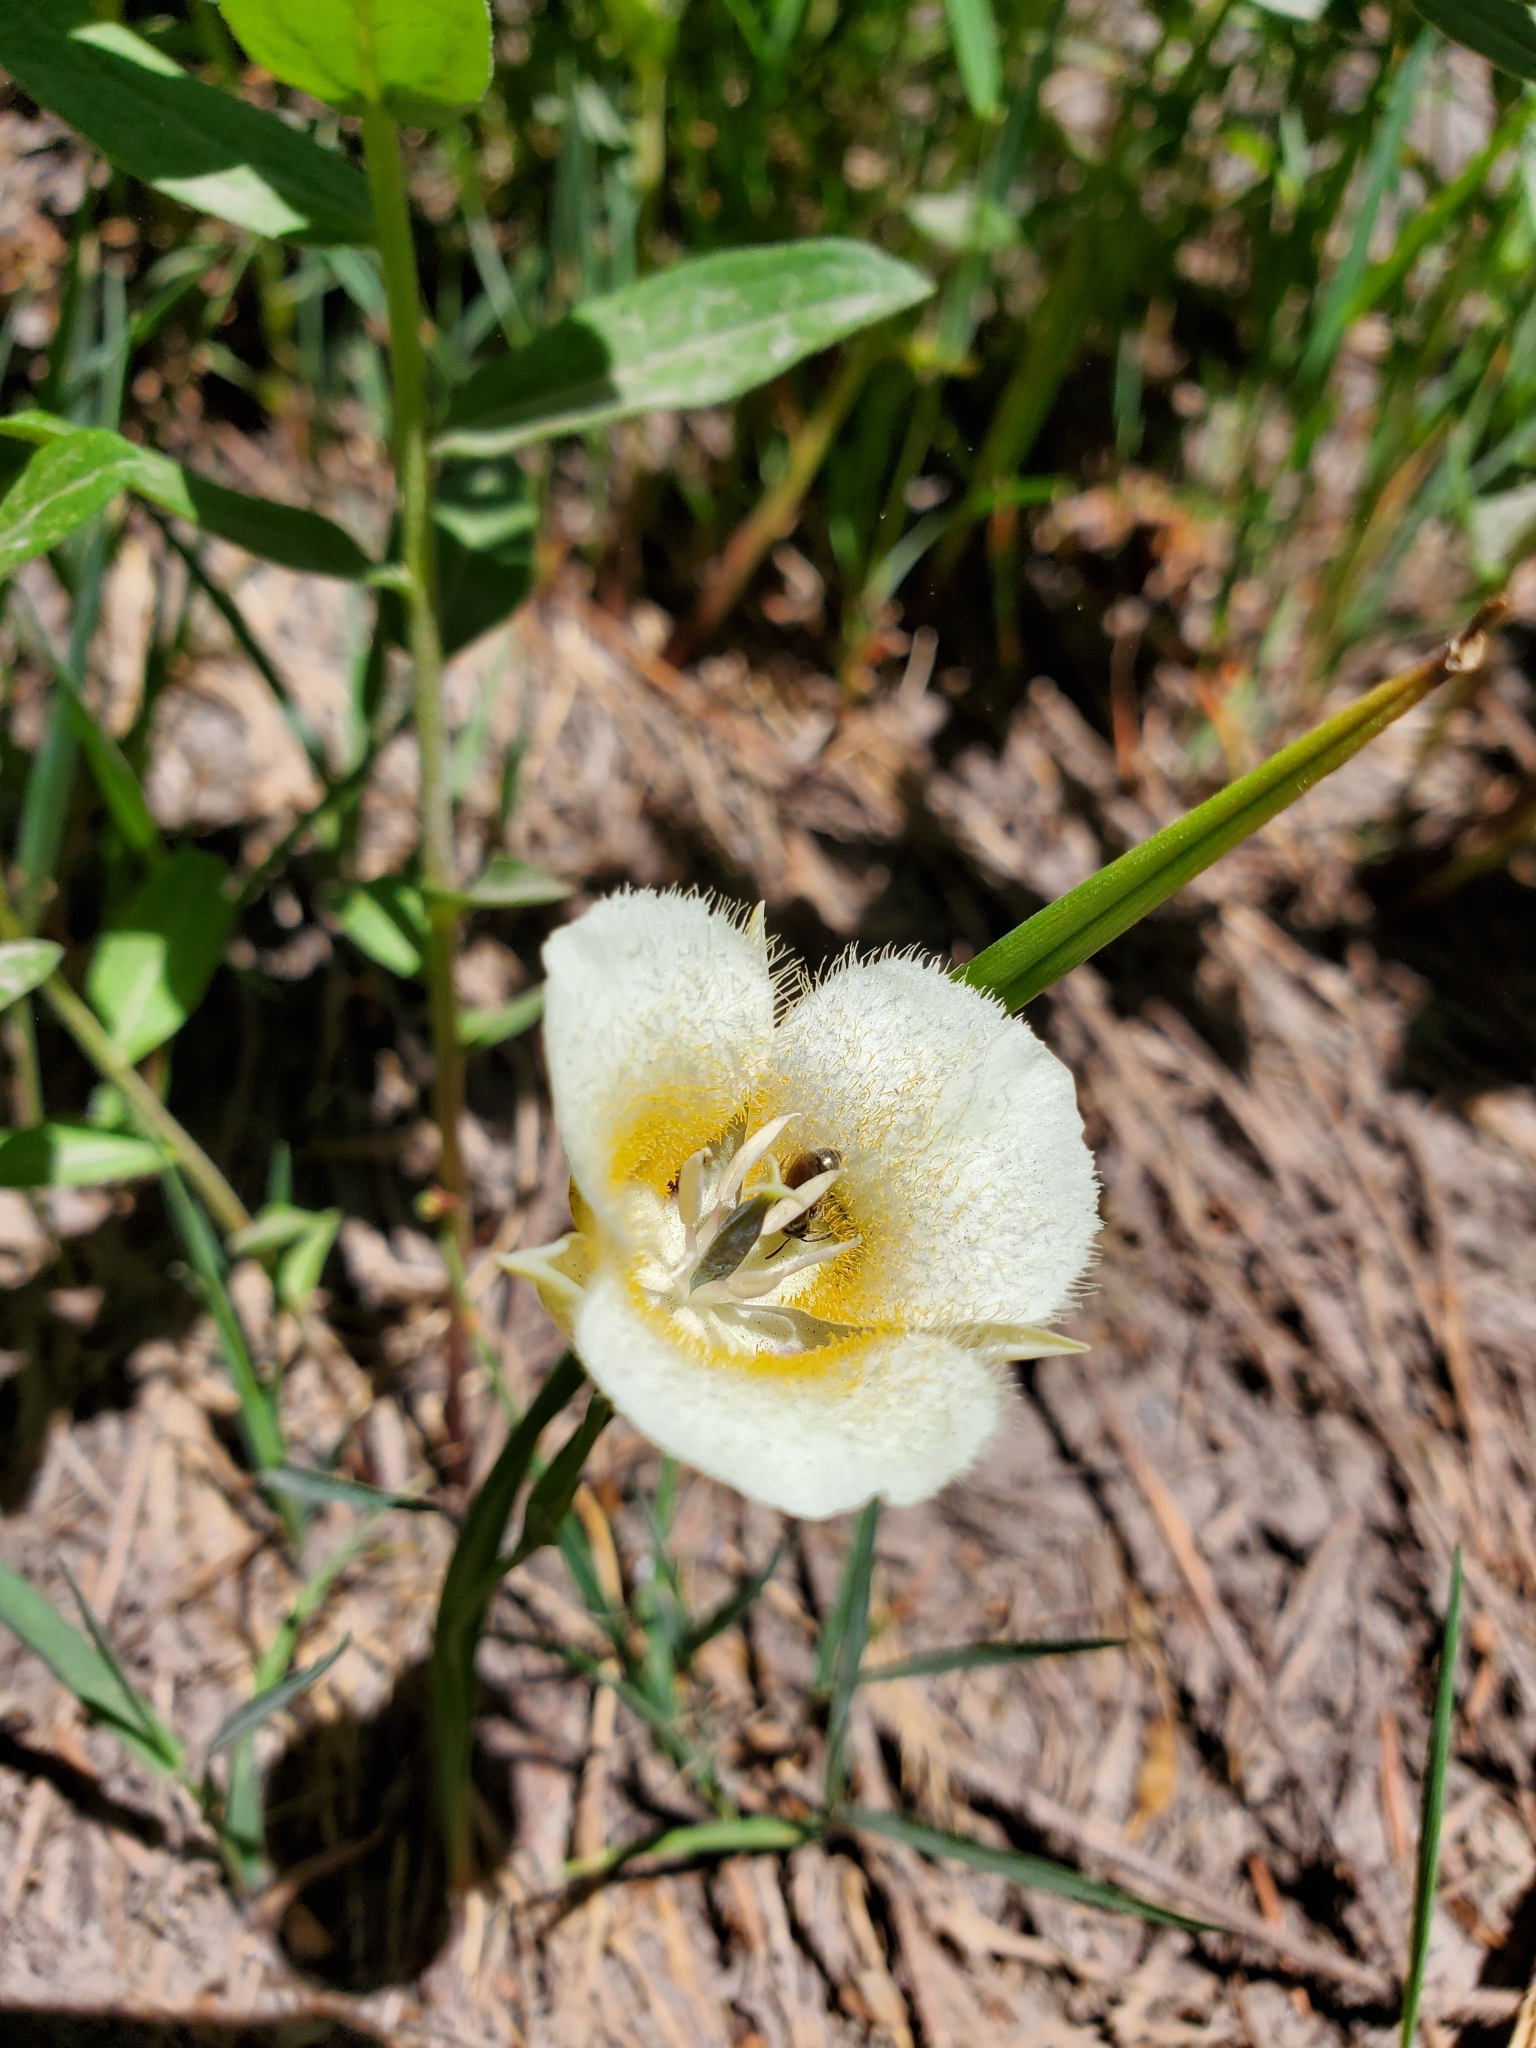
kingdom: Plantae
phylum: Tracheophyta
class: Liliopsida
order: Liliales
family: Liliaceae
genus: Calochortus
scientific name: Calochortus subalpinus
